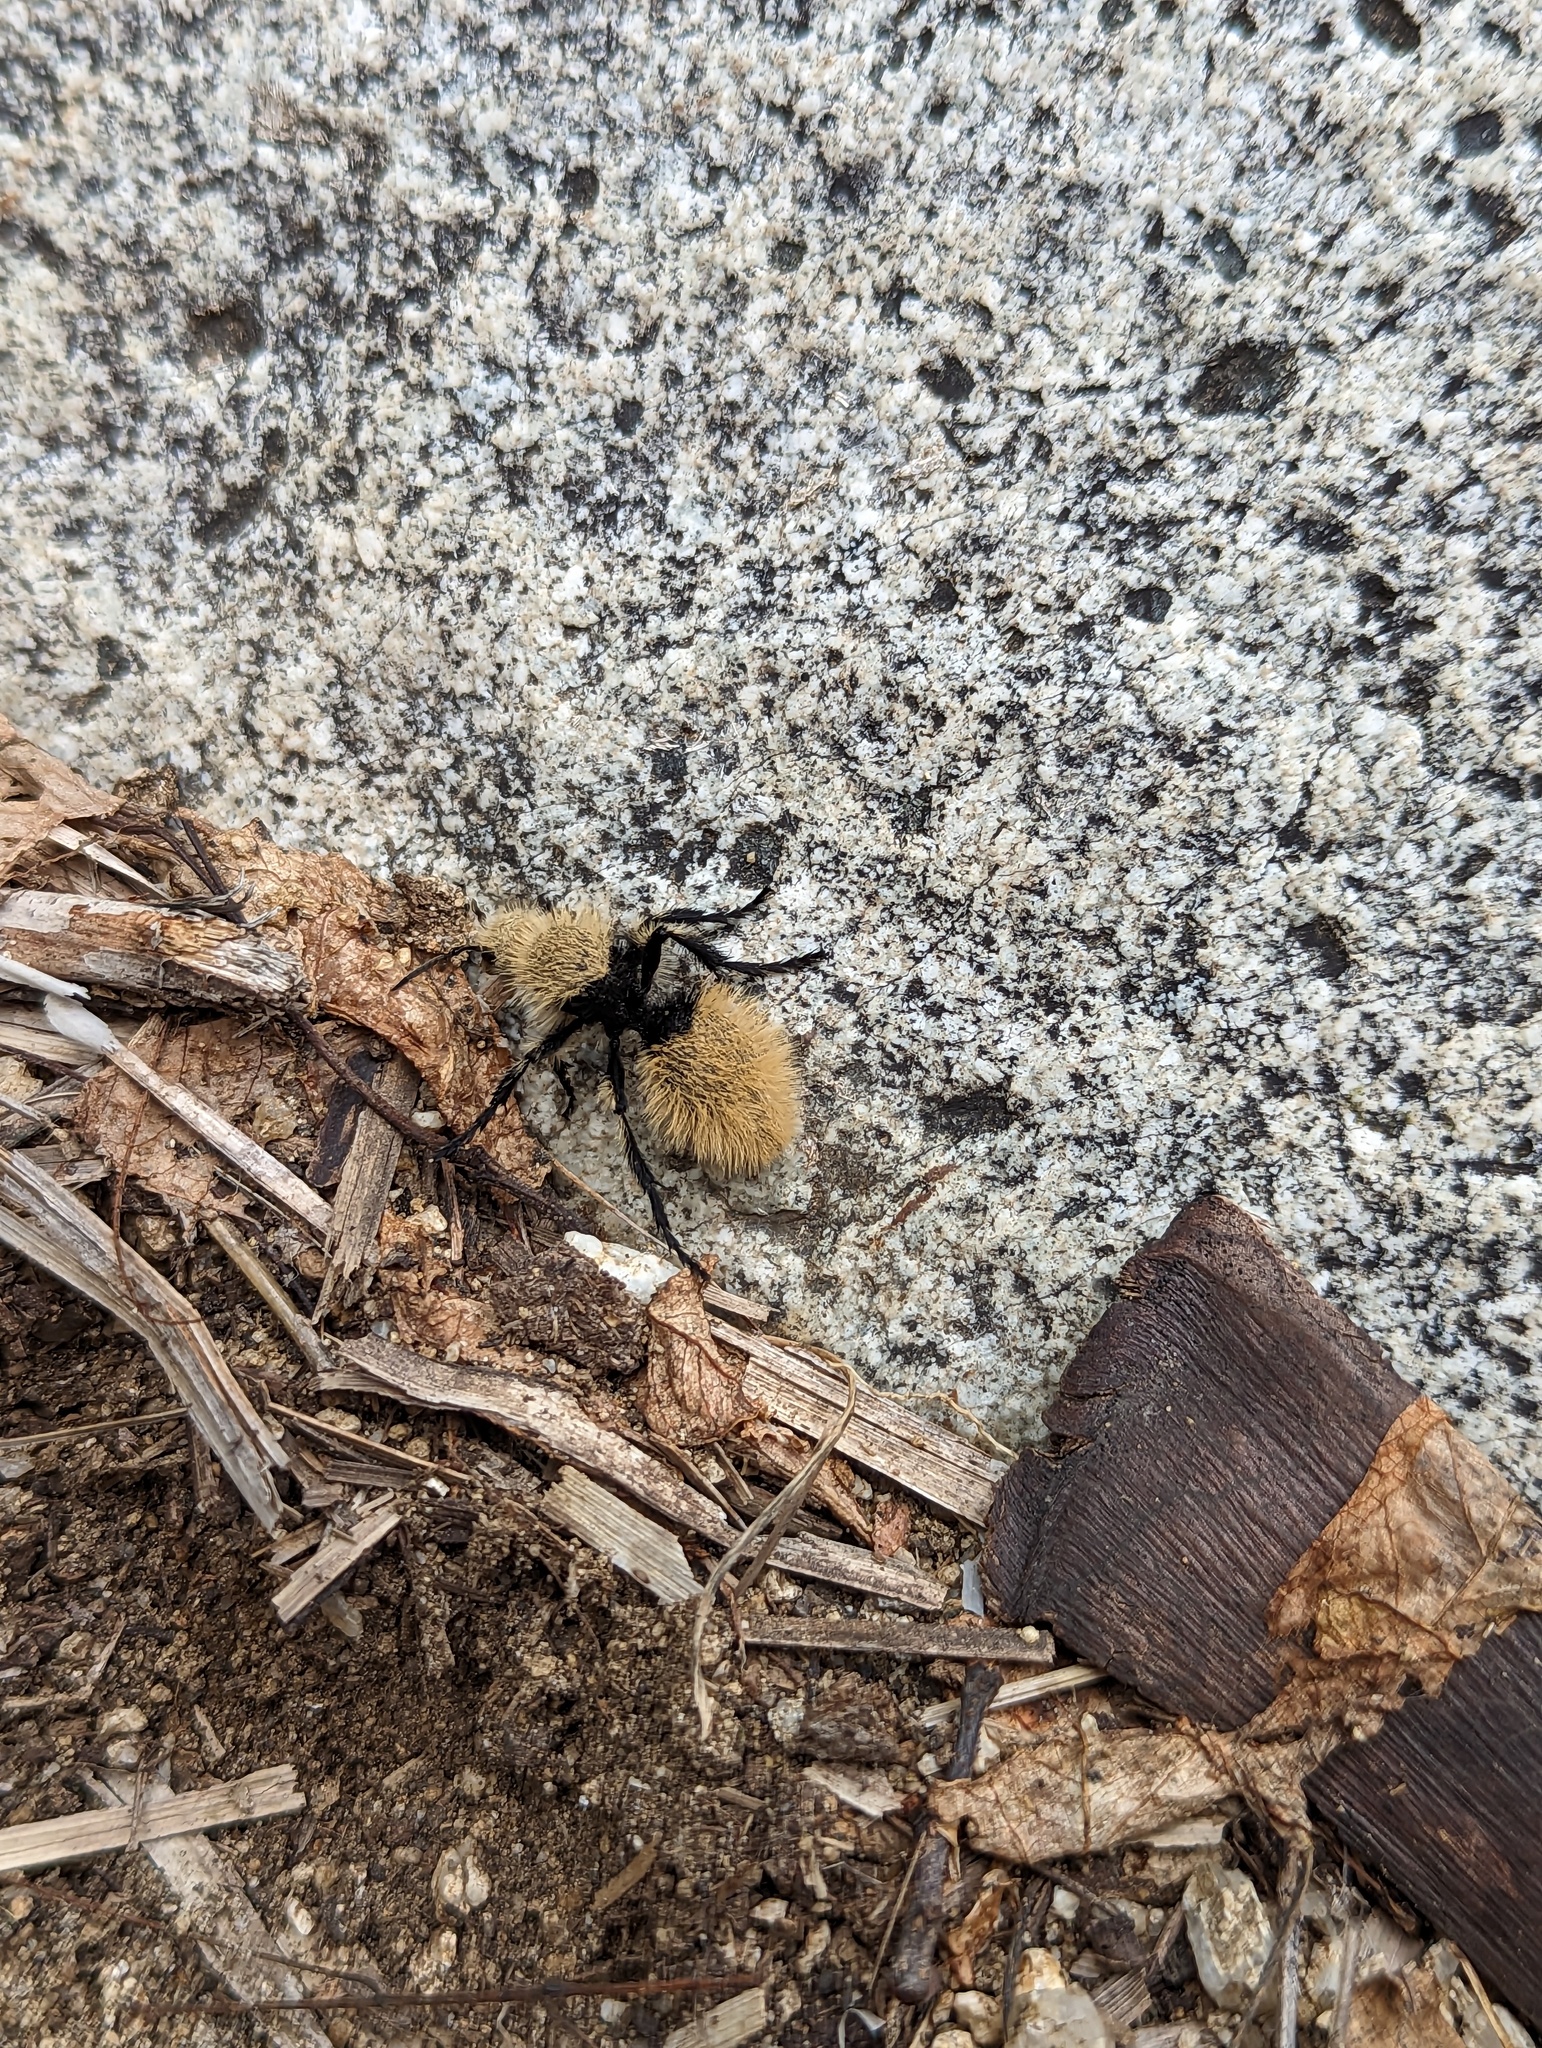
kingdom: Animalia
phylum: Arthropoda
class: Insecta
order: Hymenoptera
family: Mutillidae
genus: Dasymutilla
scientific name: Dasymutilla
